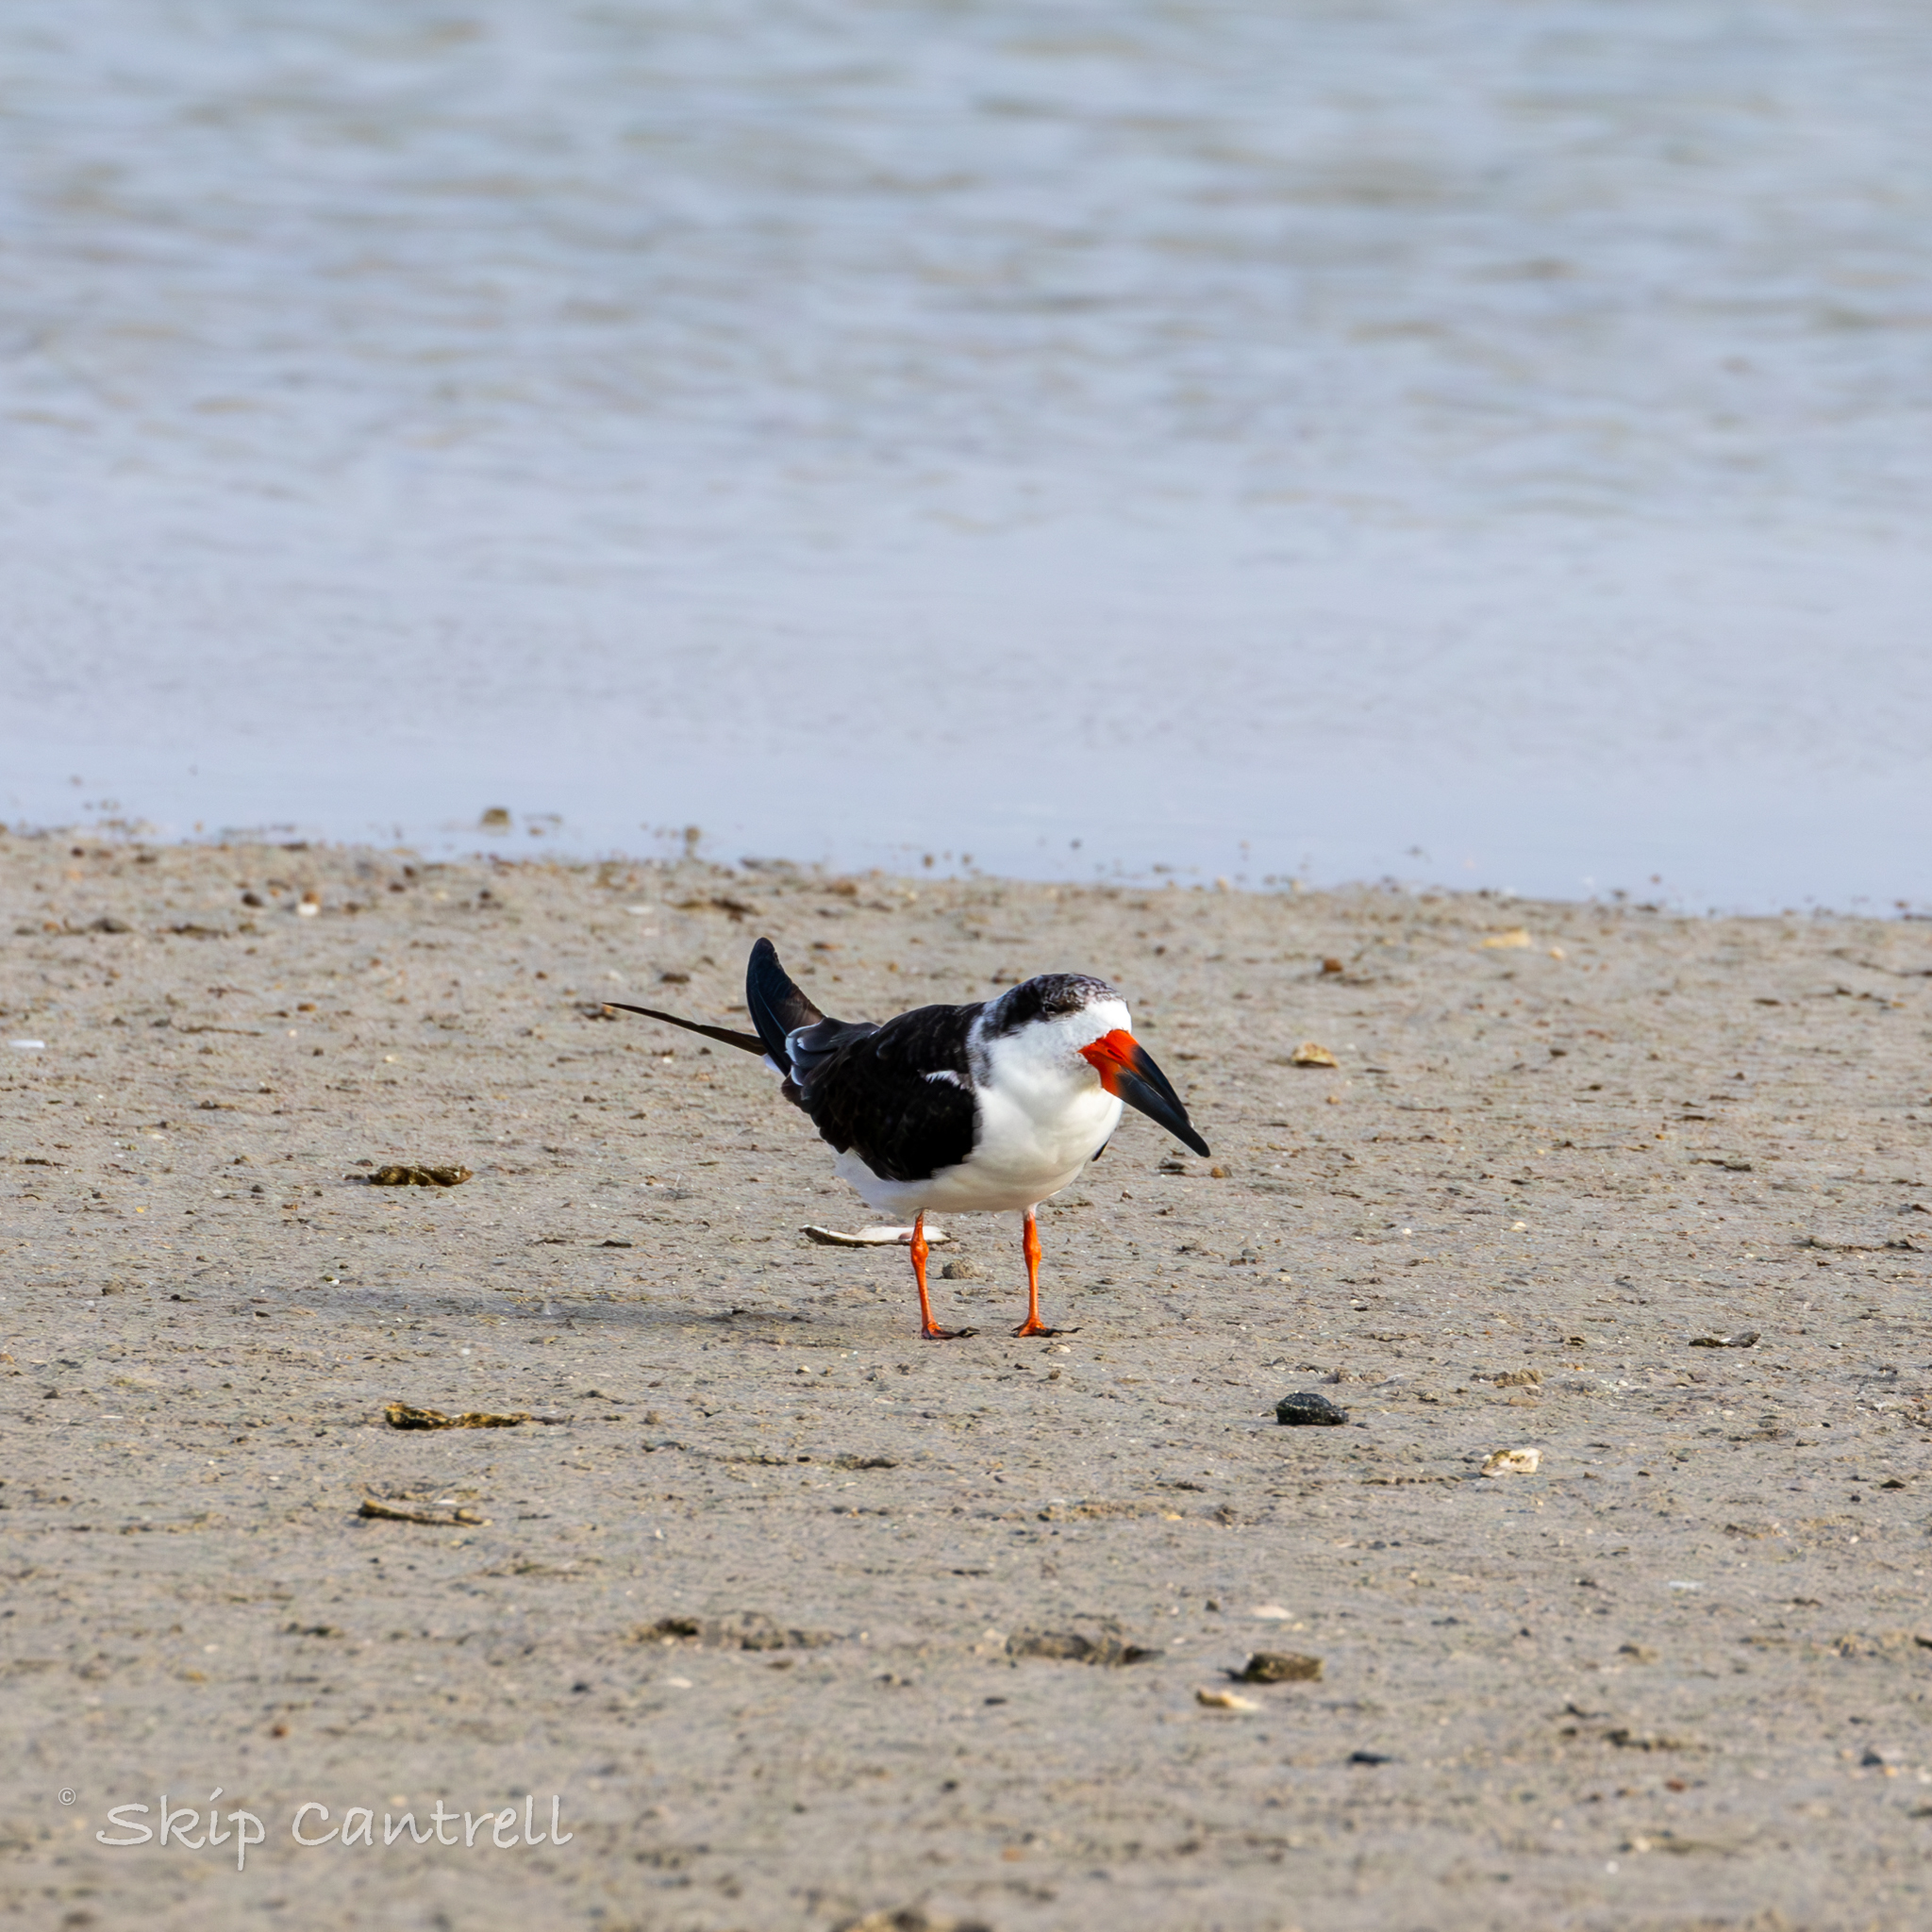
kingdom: Animalia
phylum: Chordata
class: Aves
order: Charadriiformes
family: Laridae
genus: Rynchops
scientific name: Rynchops niger
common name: Black skimmer
